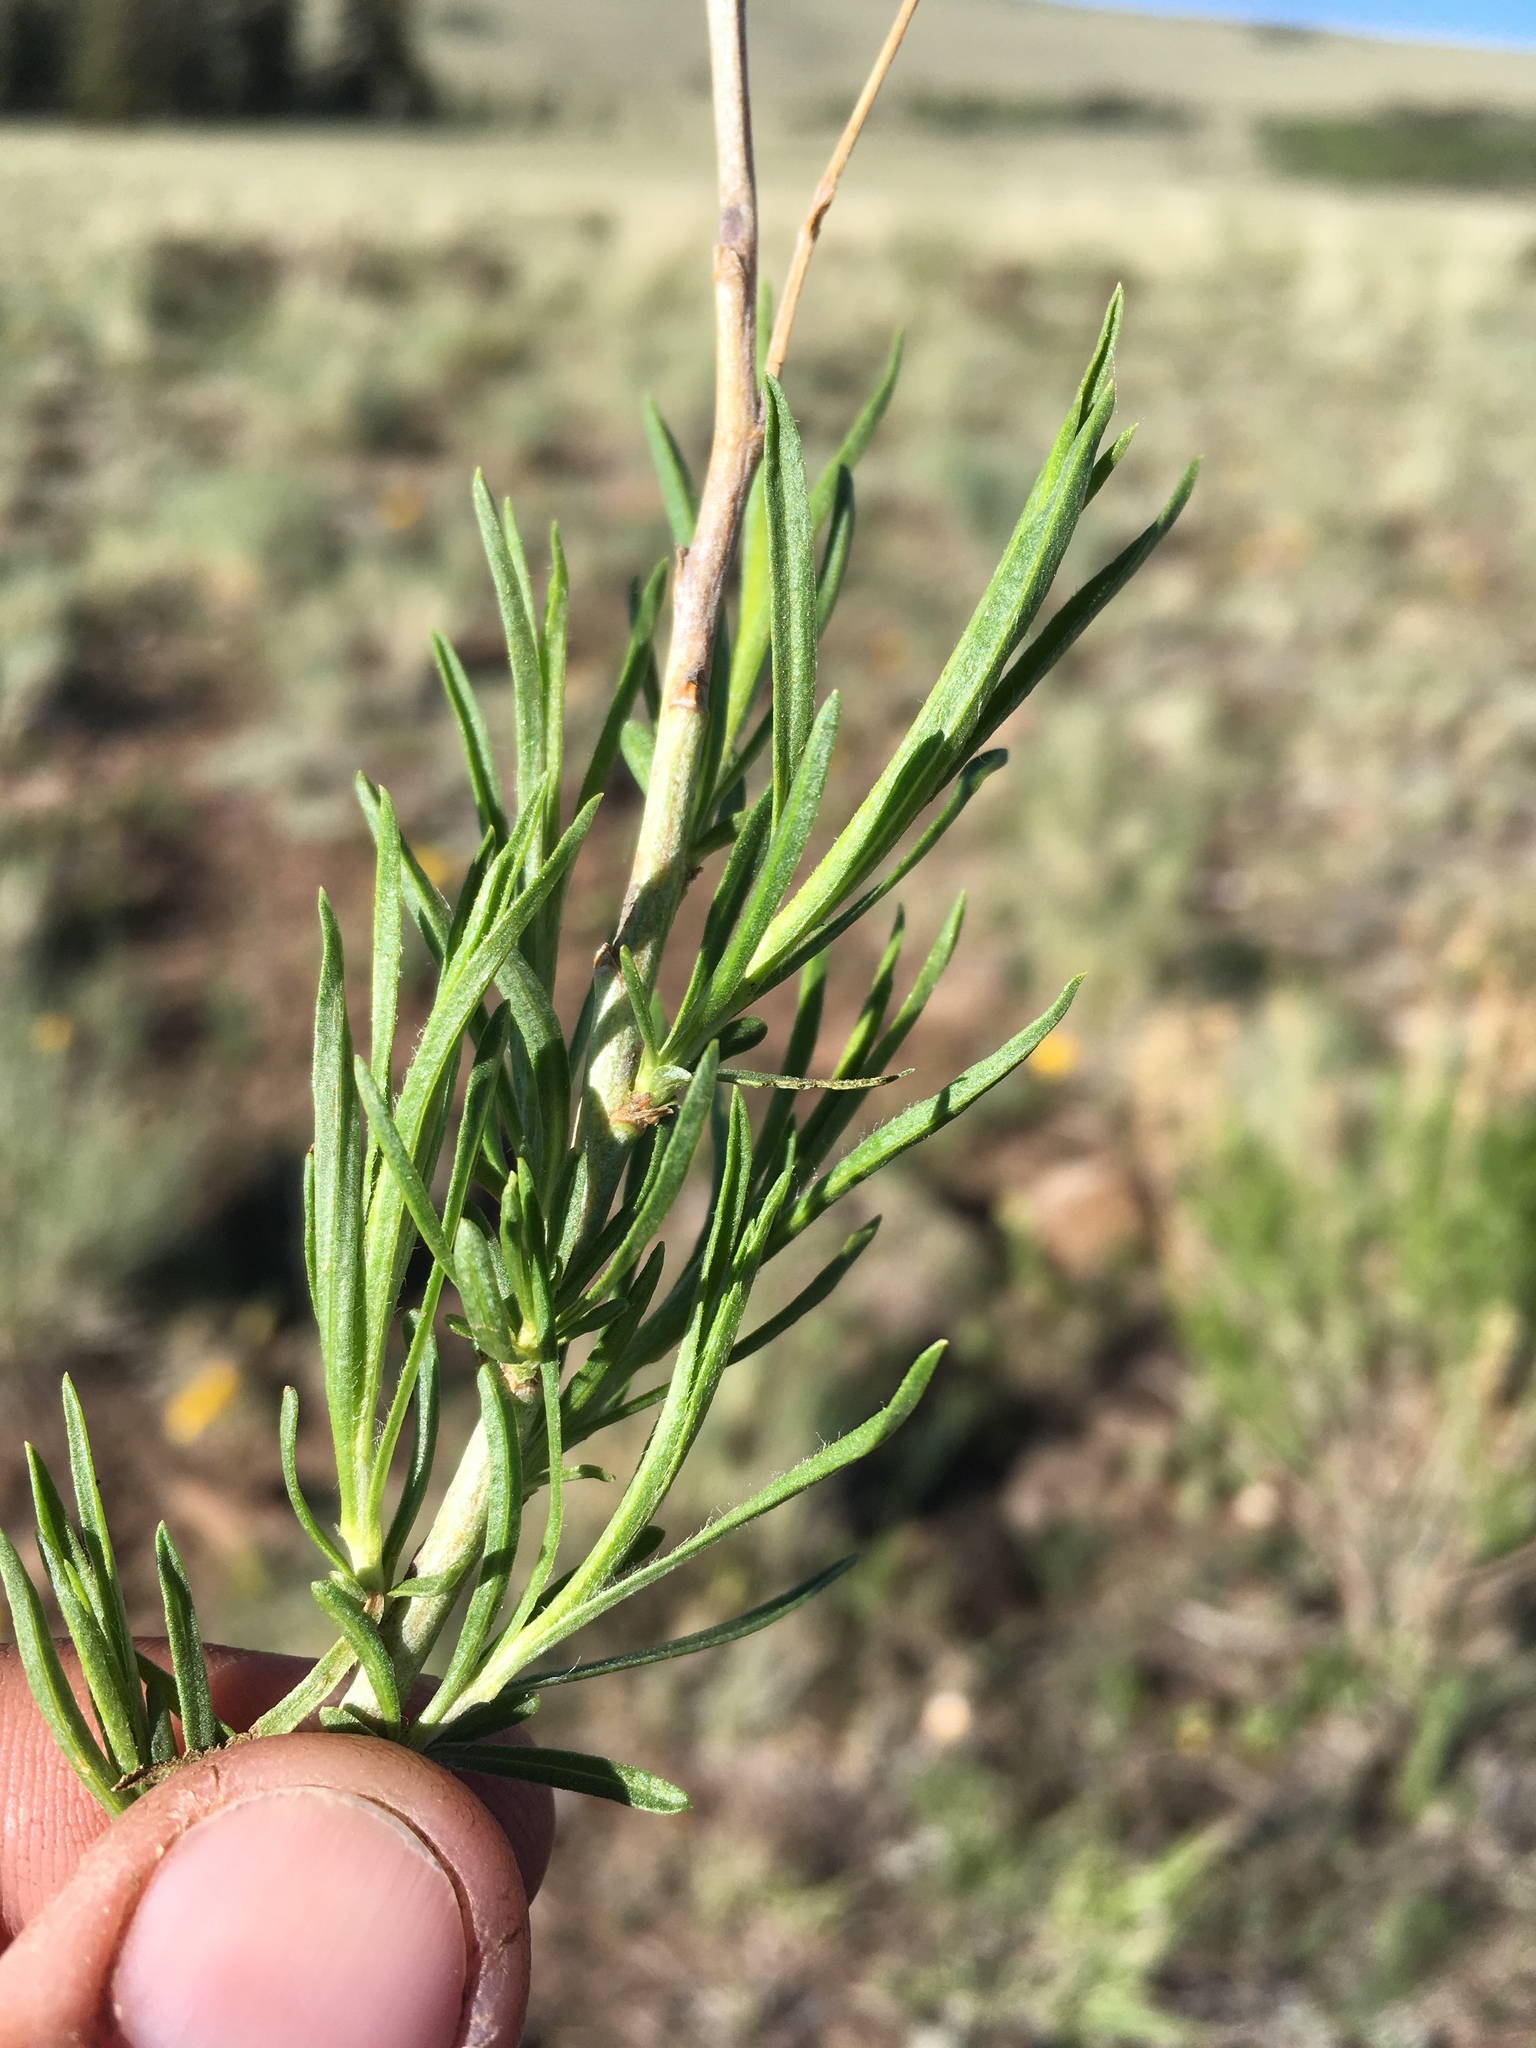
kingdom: Plantae
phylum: Tracheophyta
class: Magnoliopsida
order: Asterales
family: Asteraceae
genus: Ericameria
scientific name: Ericameria parryi
